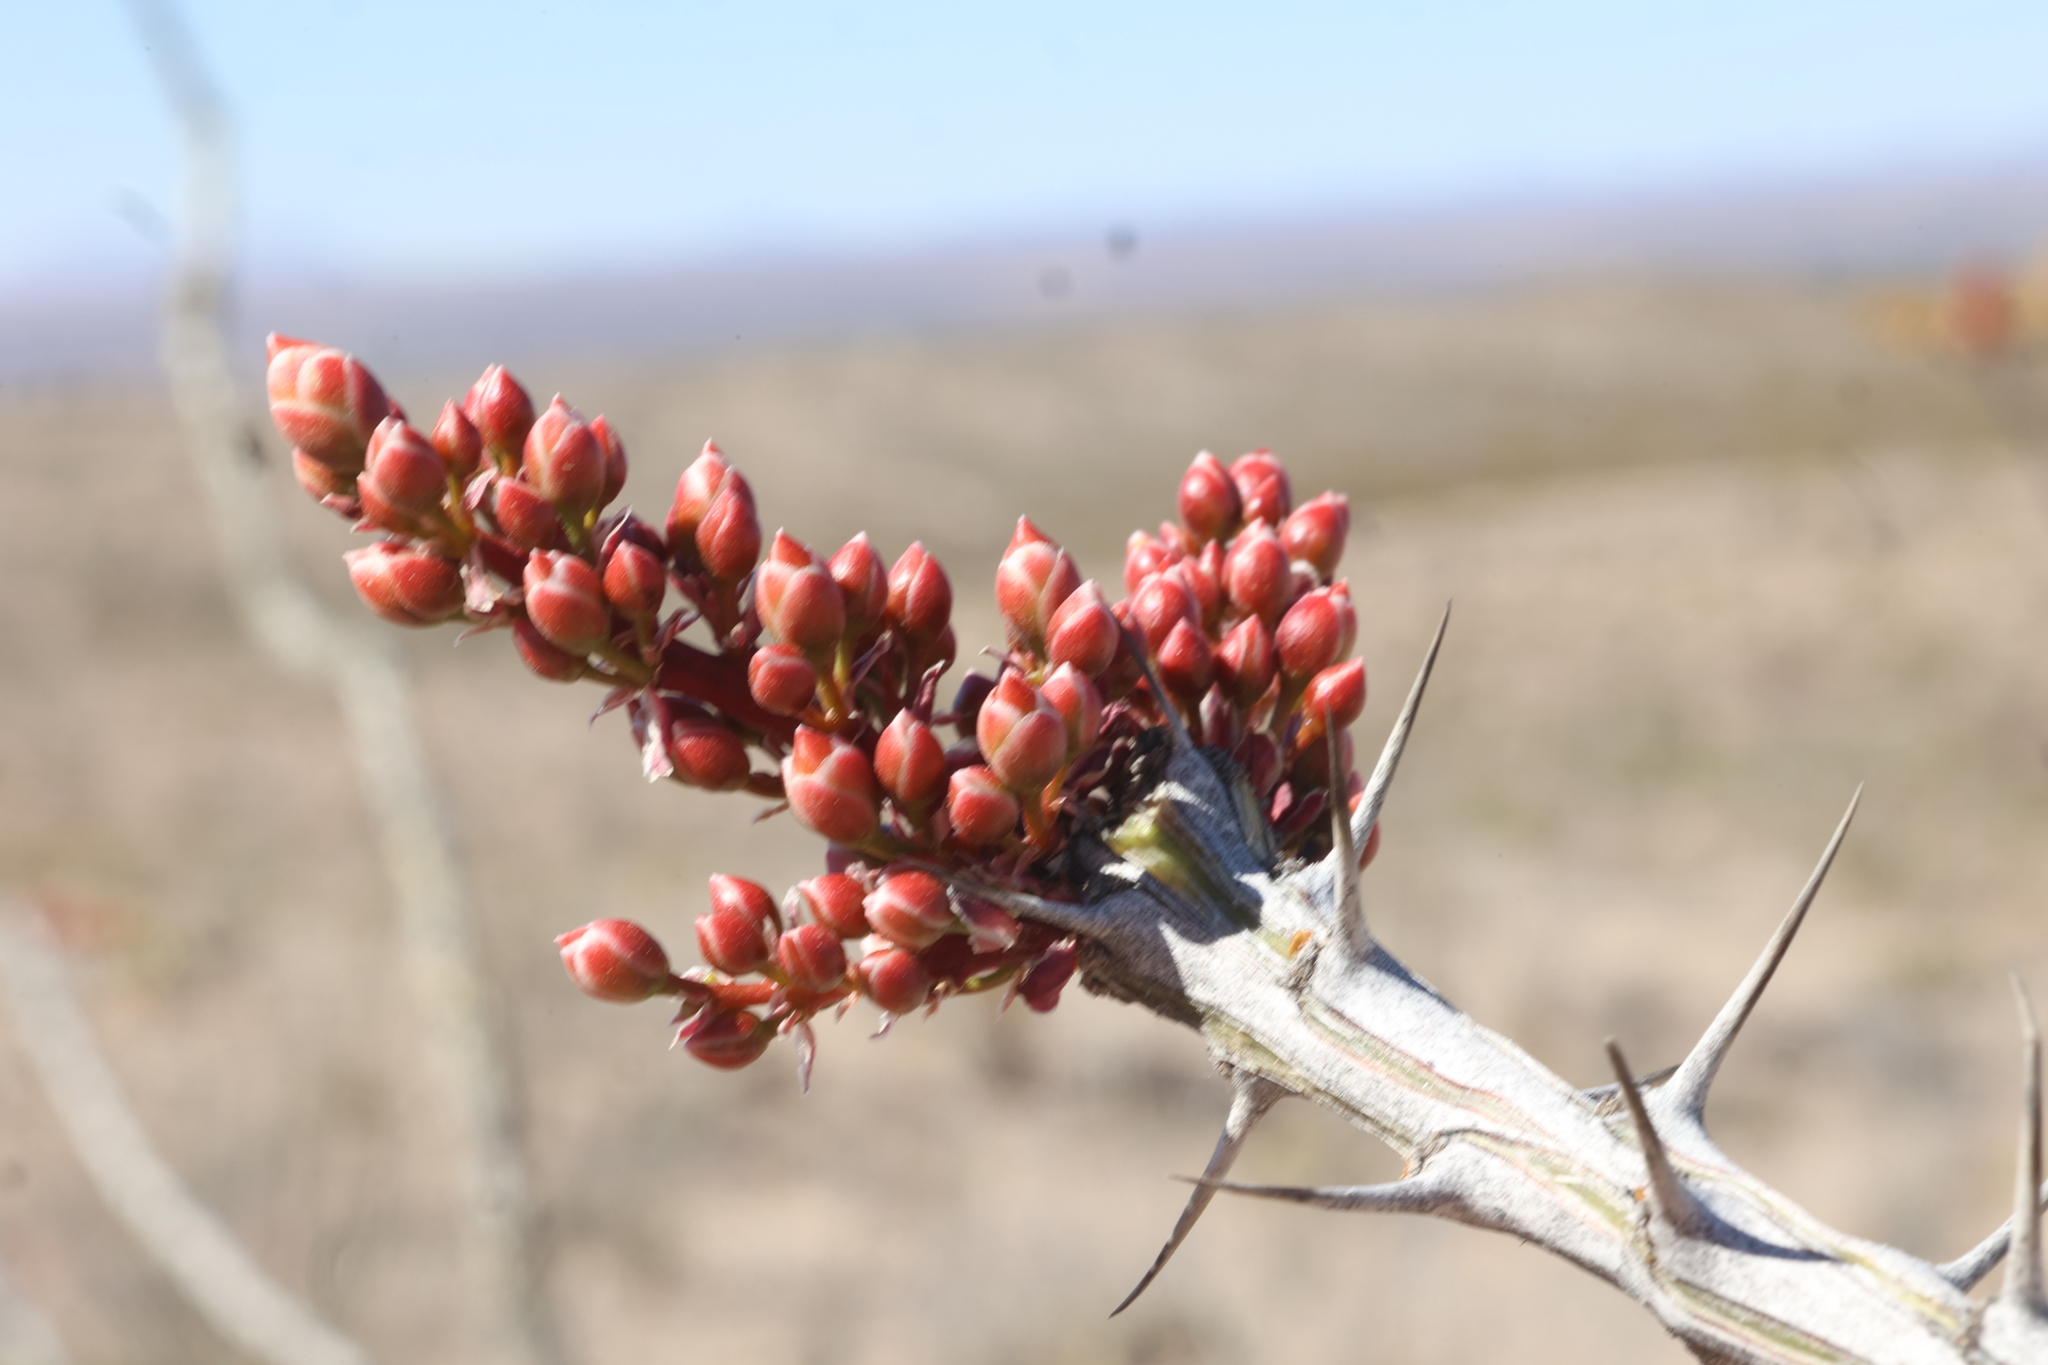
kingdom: Plantae
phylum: Tracheophyta
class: Magnoliopsida
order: Ericales
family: Fouquieriaceae
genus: Fouquieria
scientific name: Fouquieria splendens
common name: Vine-cactus
